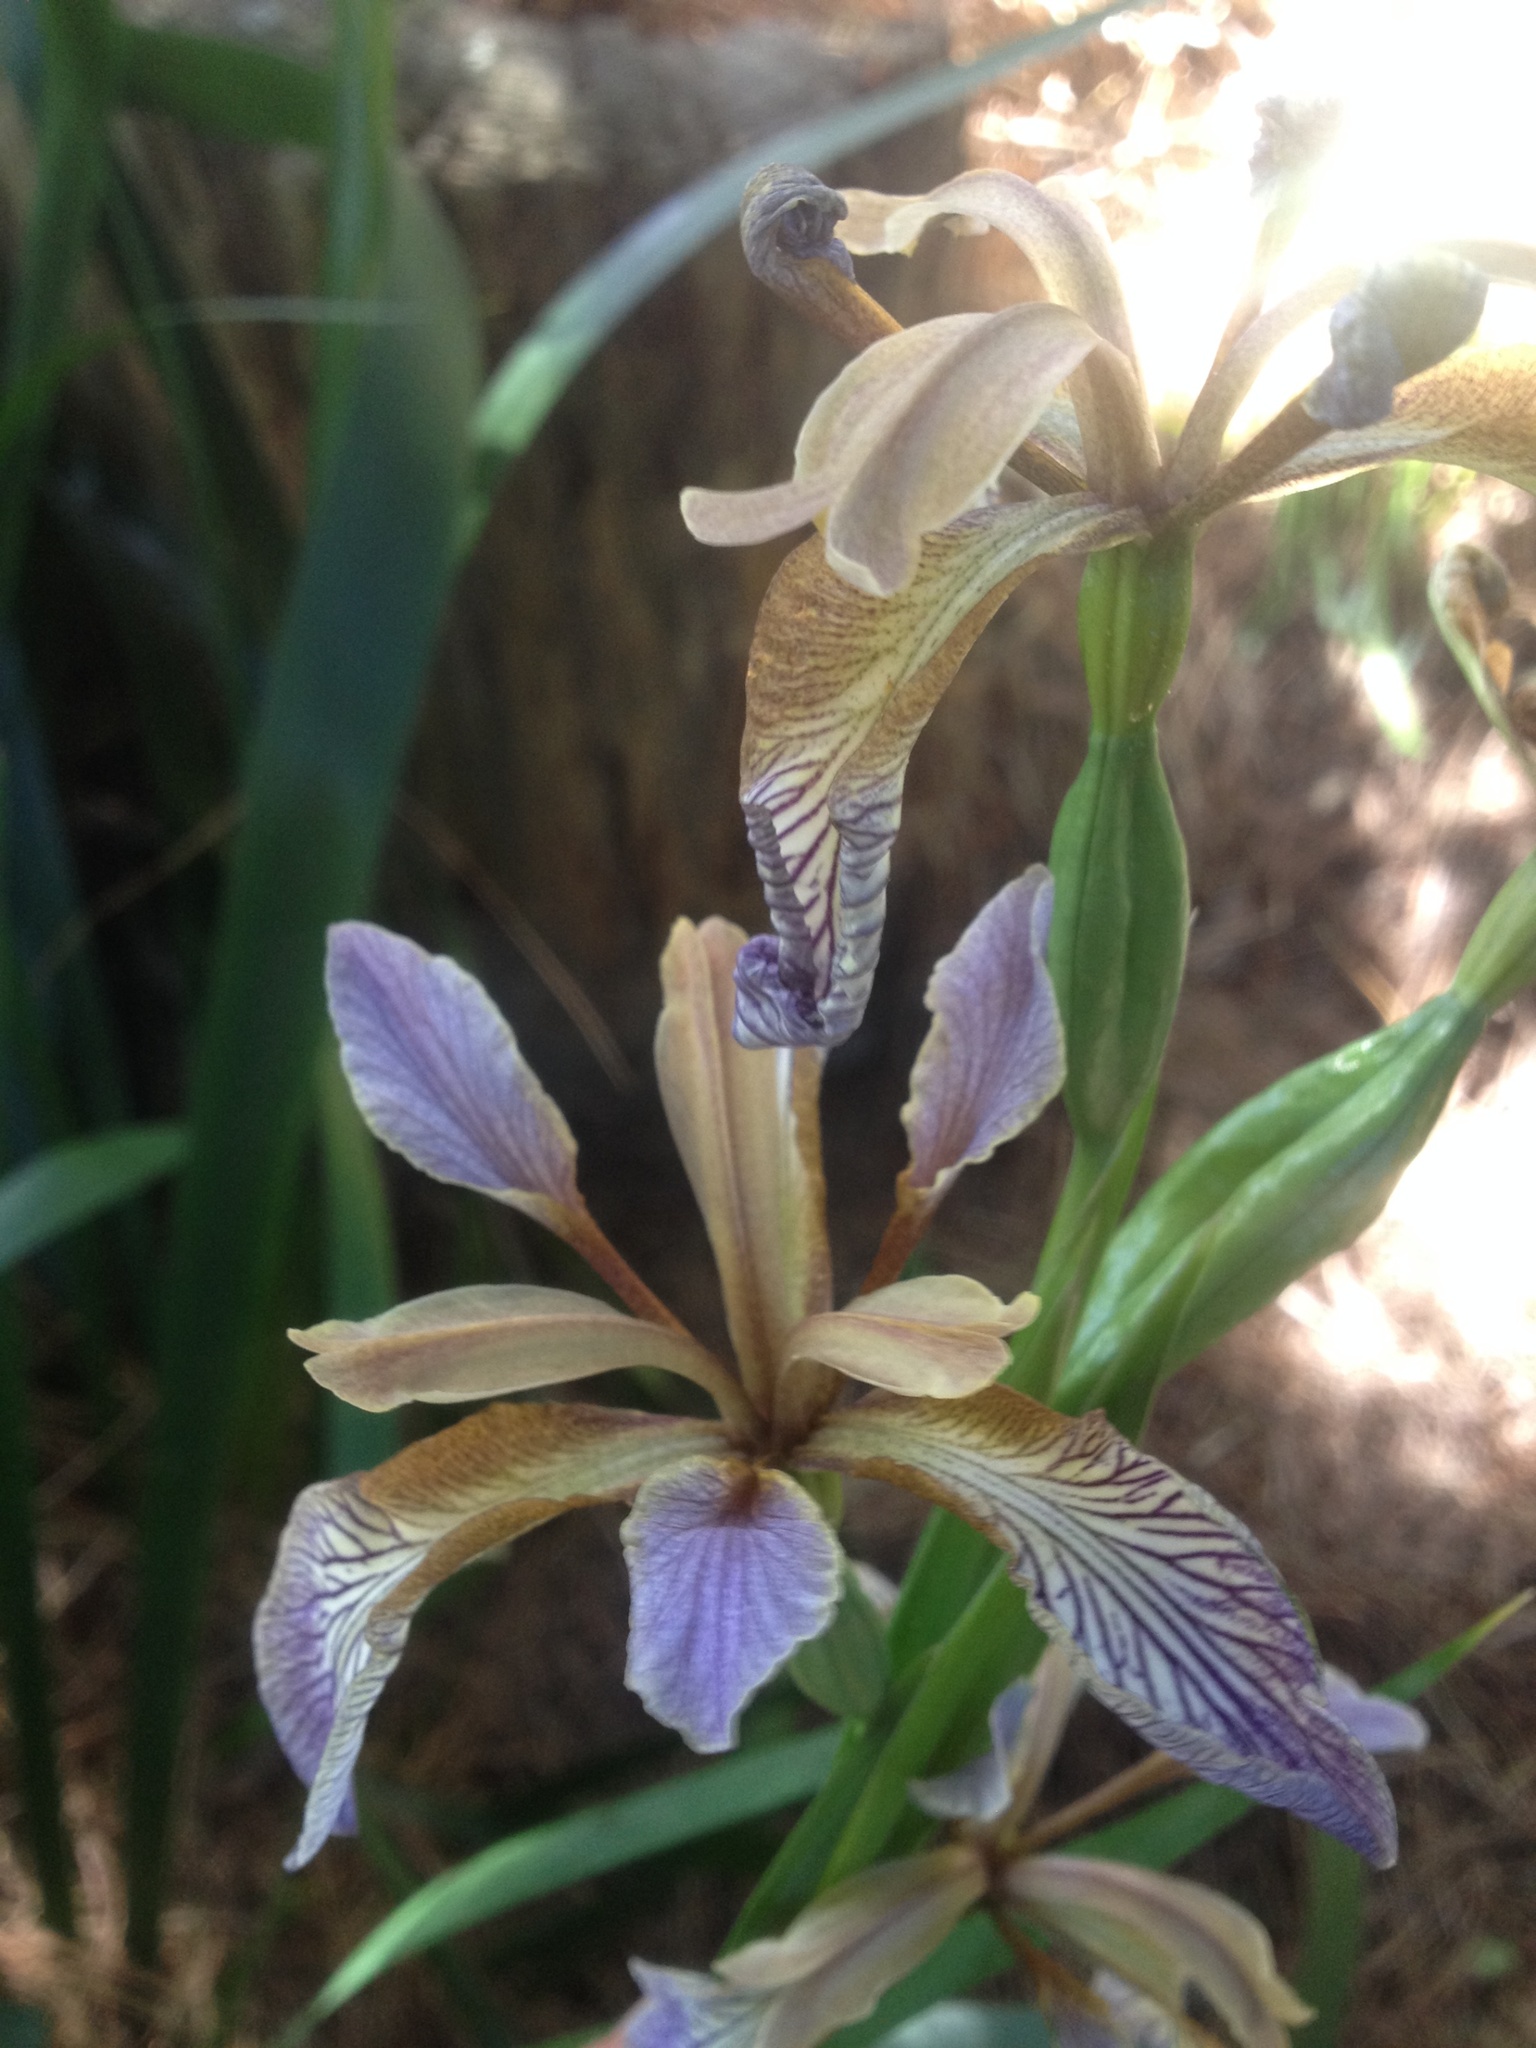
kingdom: Plantae
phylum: Tracheophyta
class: Liliopsida
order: Asparagales
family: Iridaceae
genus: Iris
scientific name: Iris foetidissima
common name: Stinking iris
